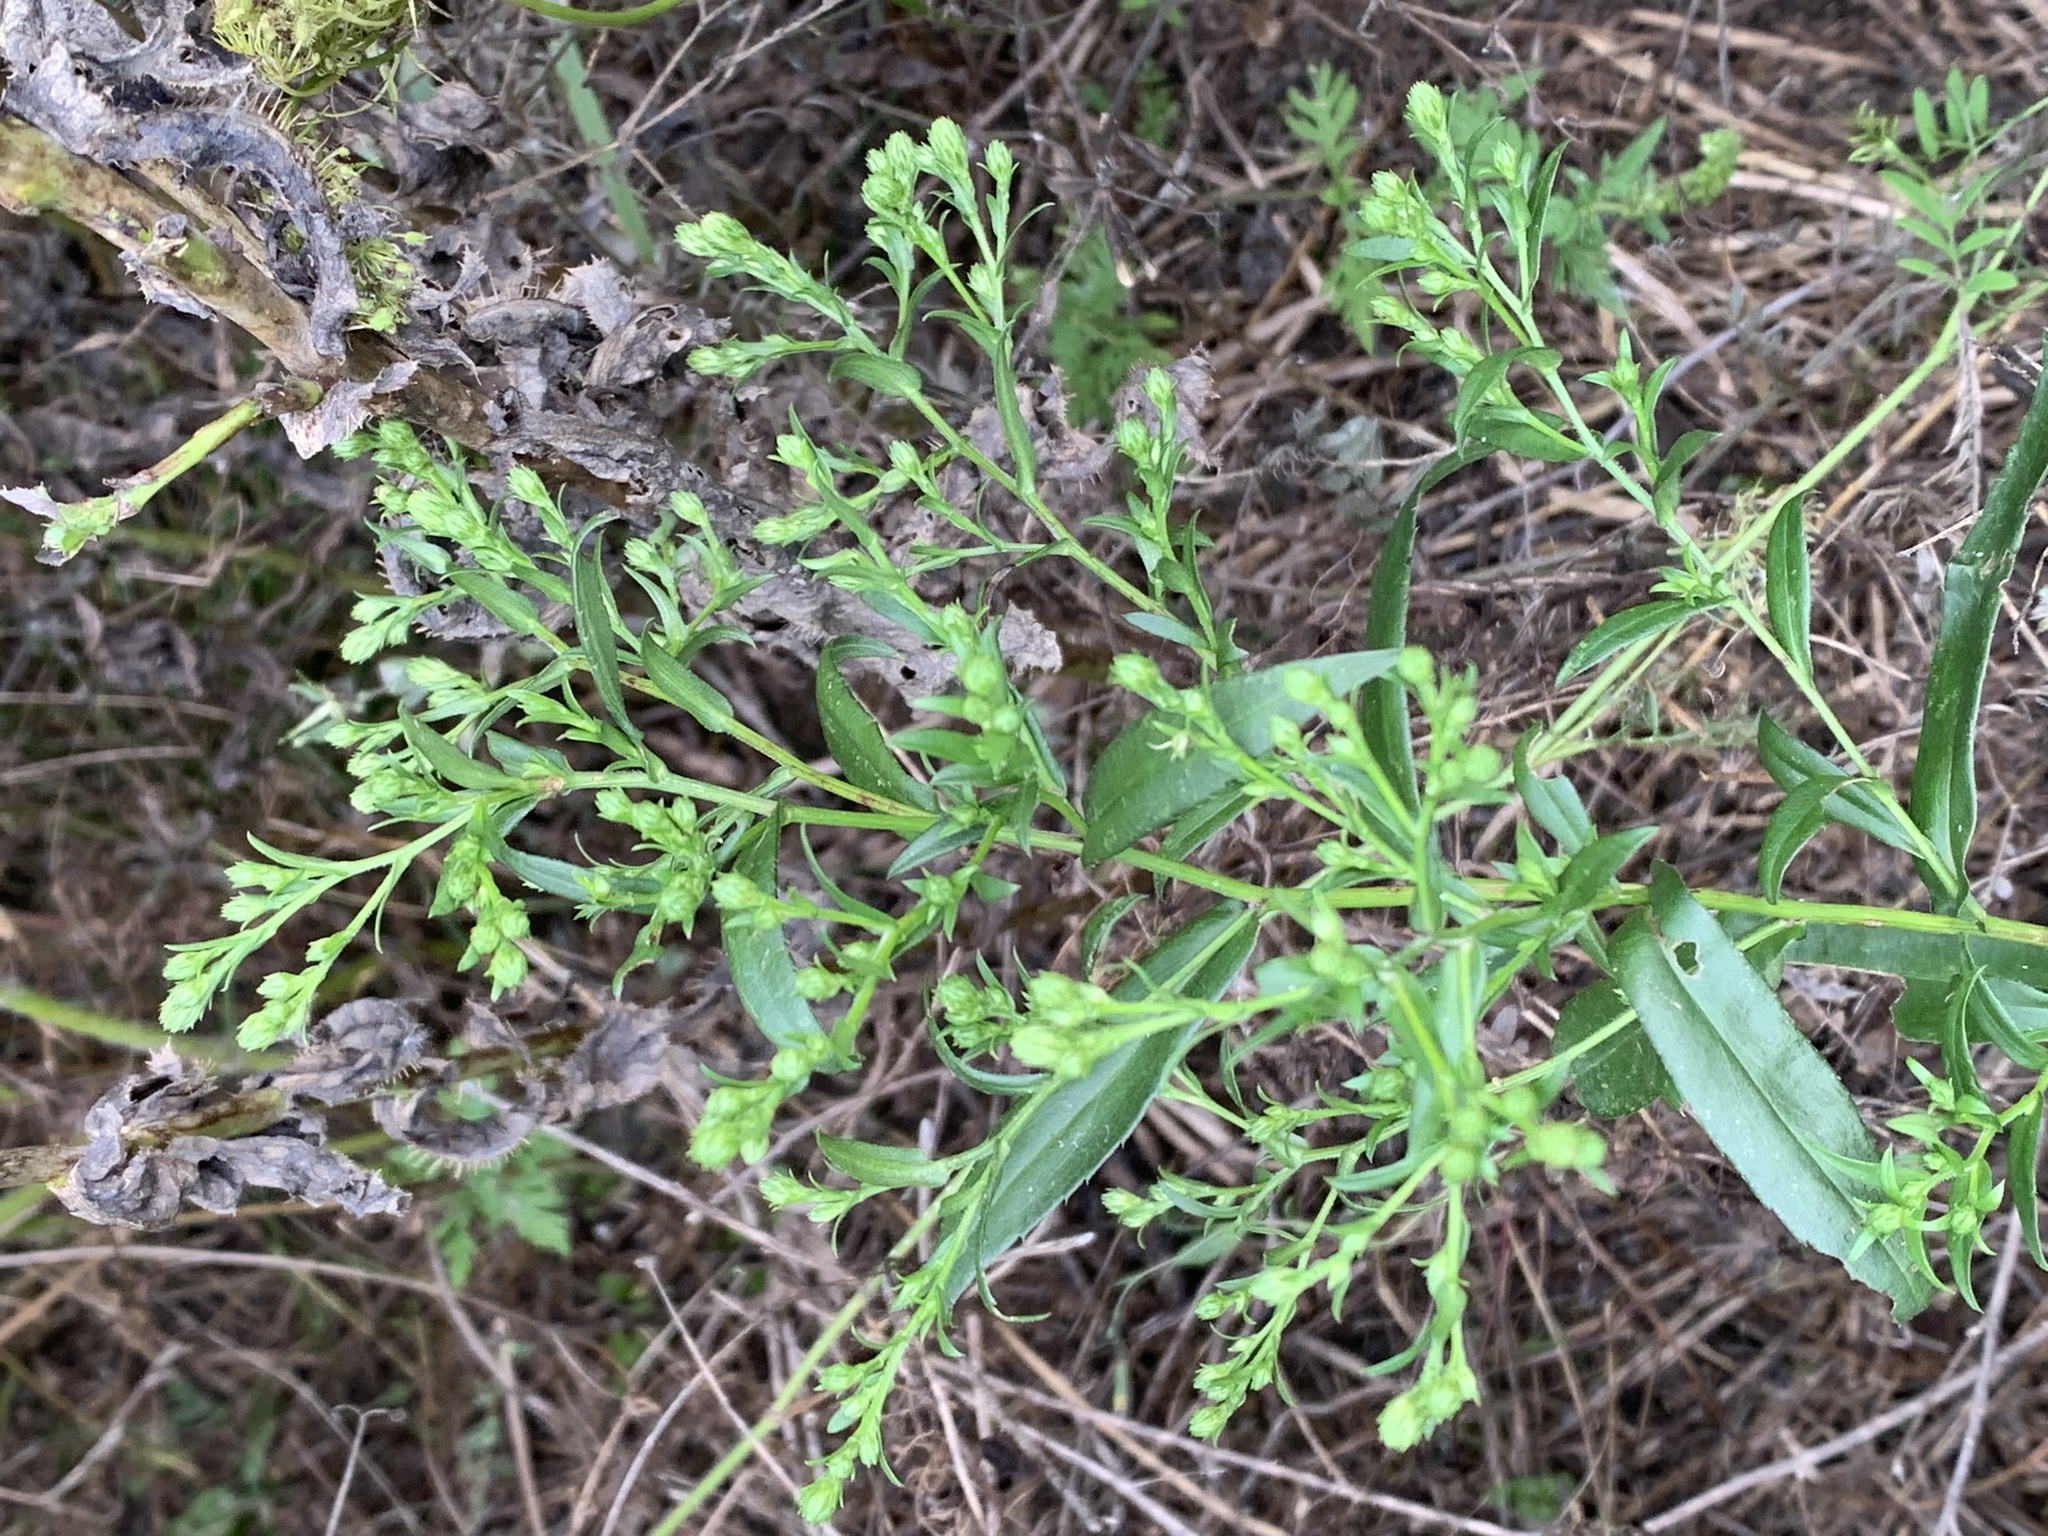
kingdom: Plantae
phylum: Tracheophyta
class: Magnoliopsida
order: Asterales
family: Asteraceae
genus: Symphyotrichum
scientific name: Symphyotrichum firmum
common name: Shining aster
